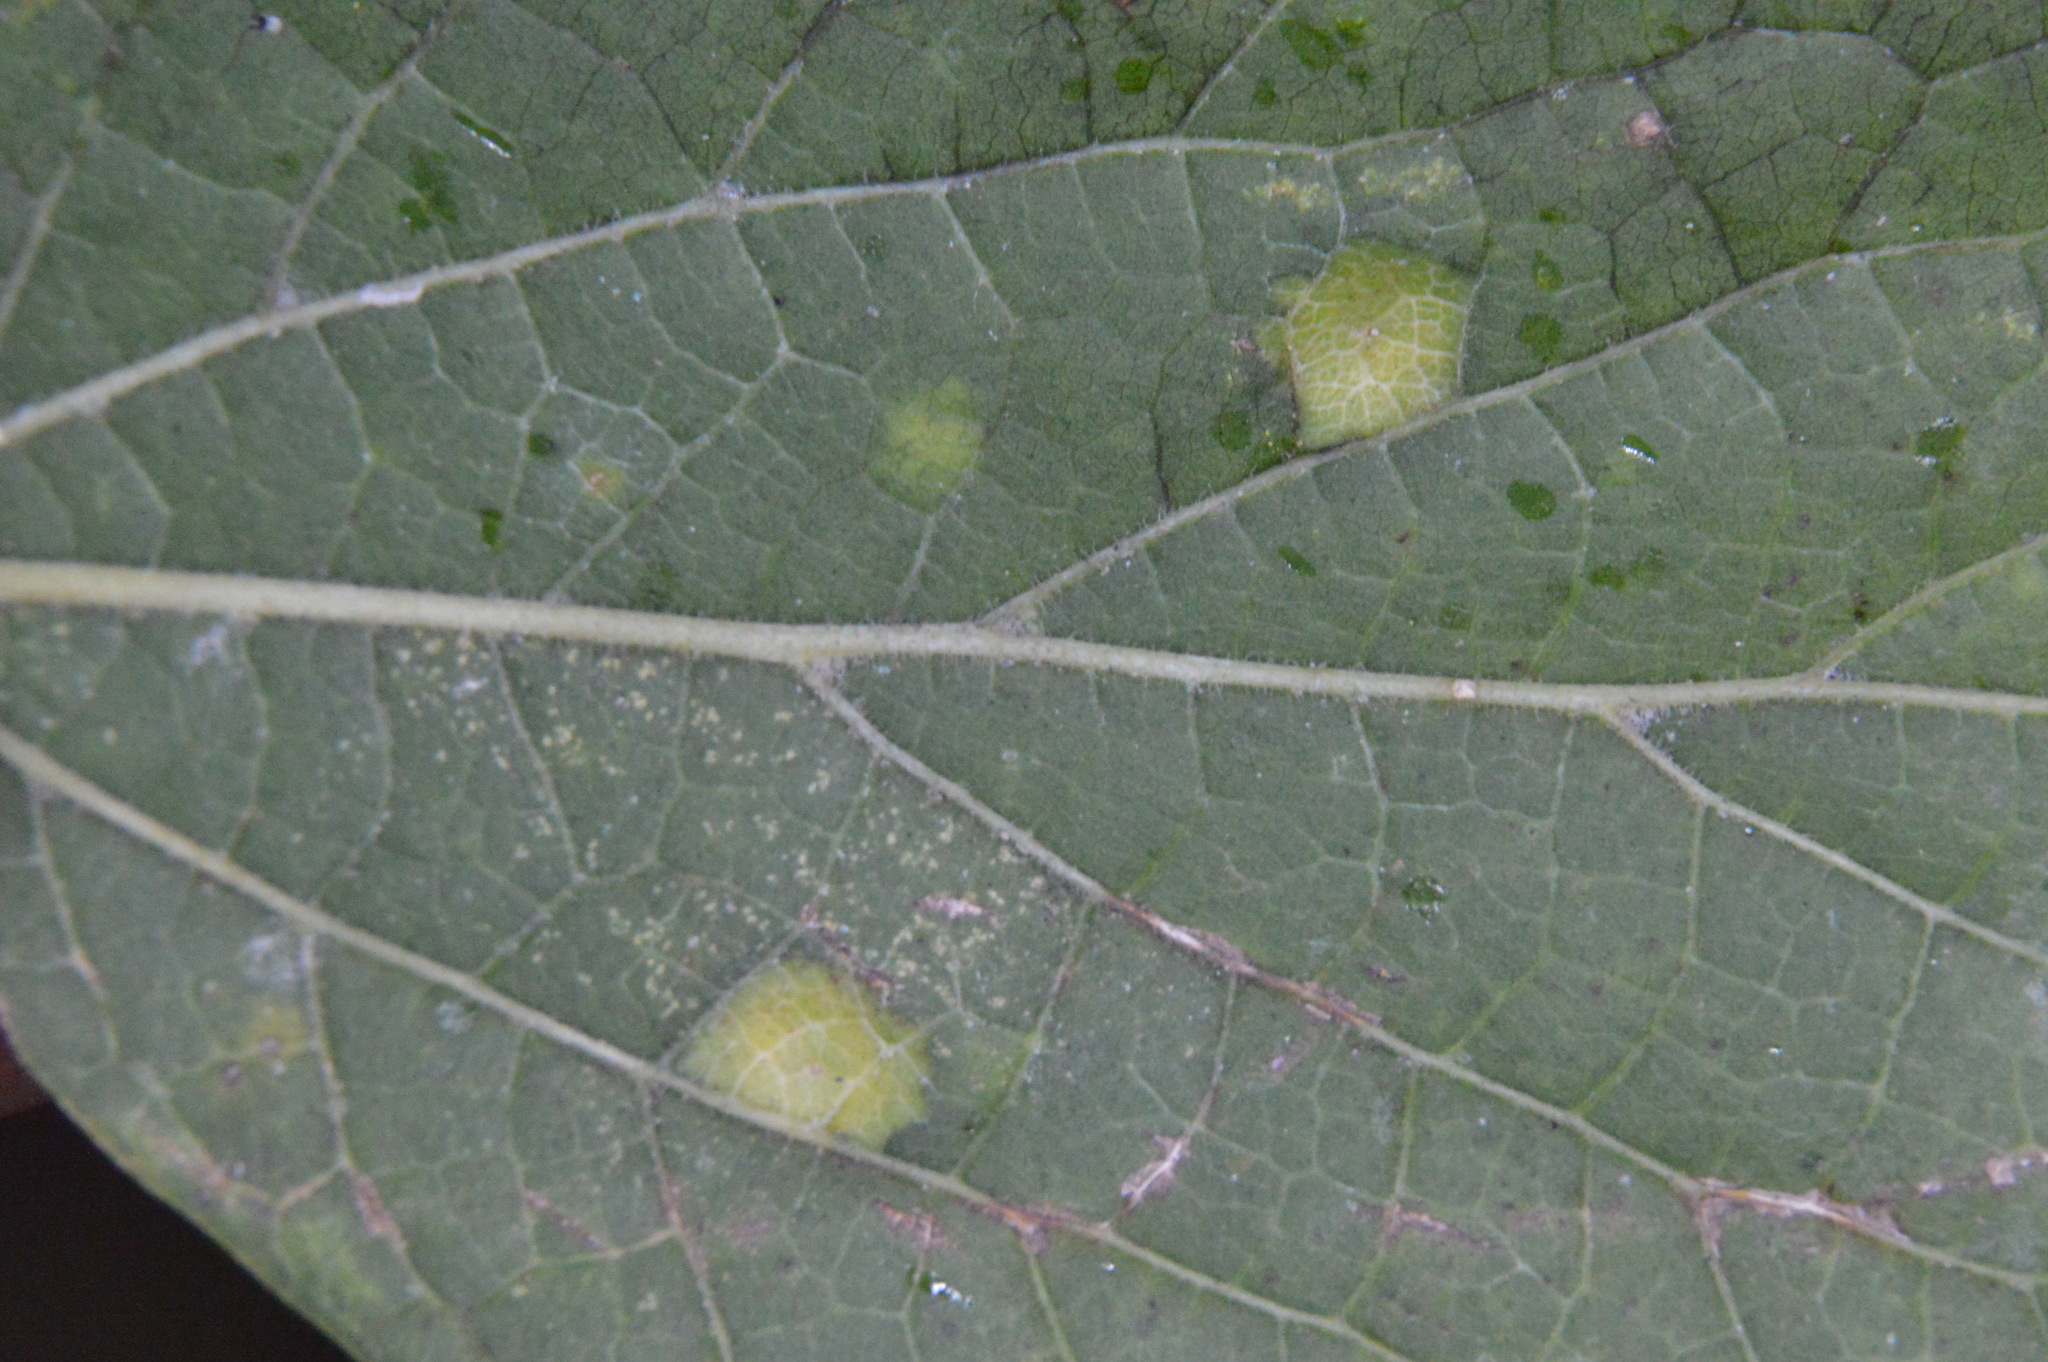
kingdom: Animalia
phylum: Arthropoda
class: Insecta
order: Hemiptera
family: Aphalaridae
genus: Pachypsylla
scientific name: Pachypsylla celtidisvesicula
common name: Hackberry blister gall psyllid
